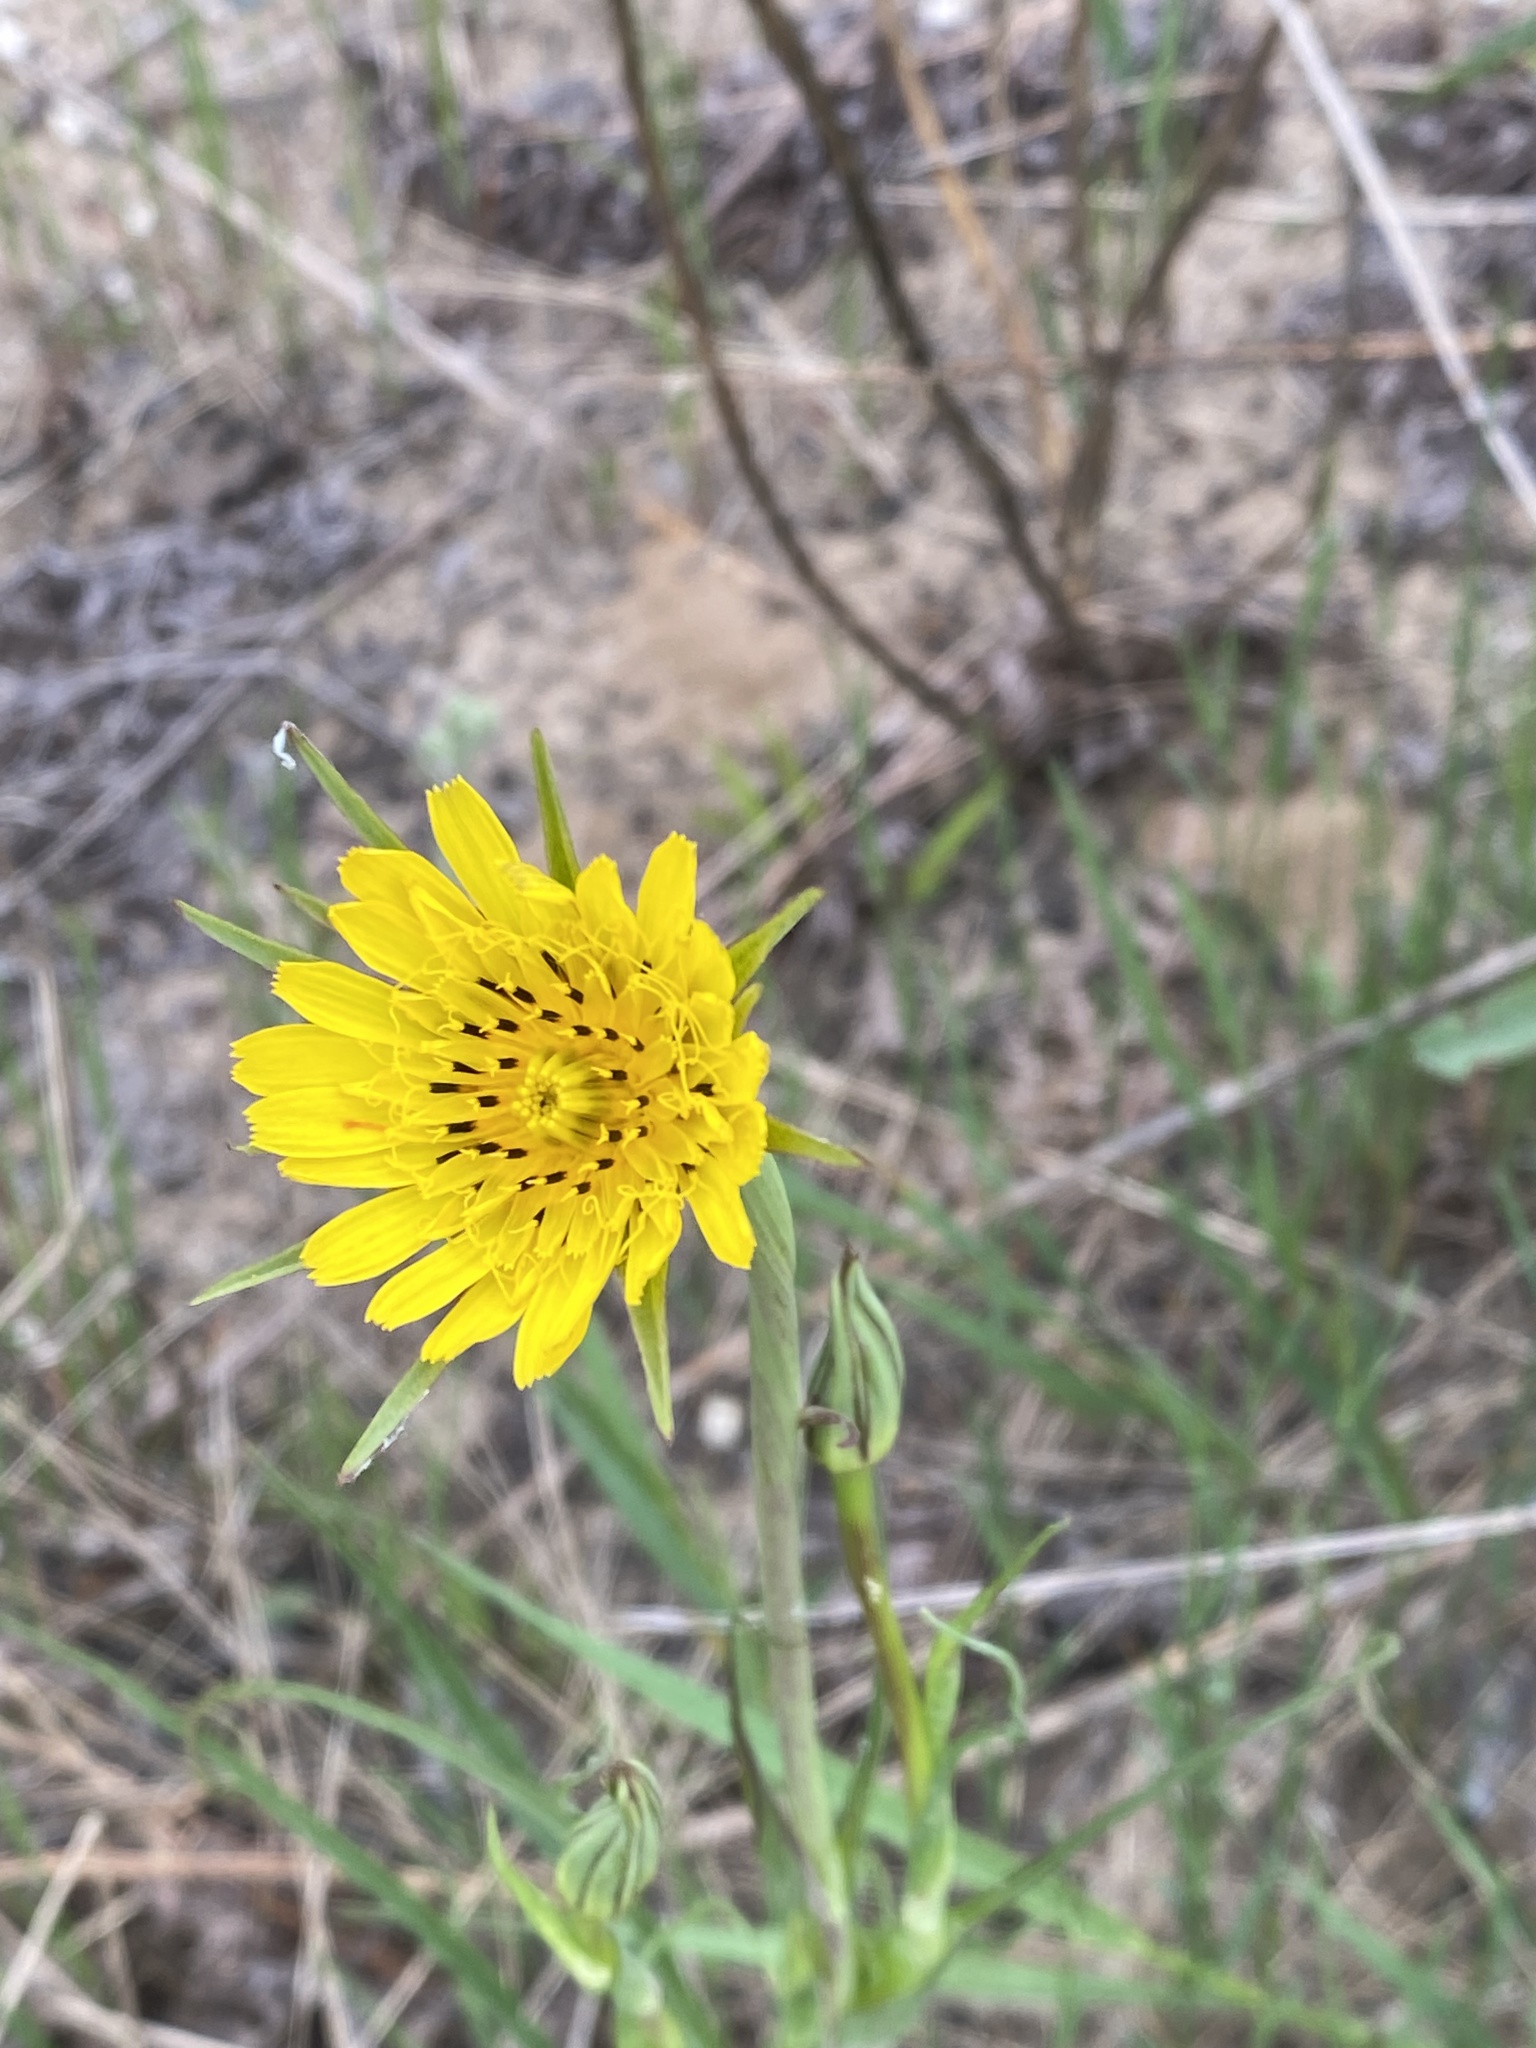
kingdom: Plantae
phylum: Tracheophyta
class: Magnoliopsida
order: Asterales
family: Asteraceae
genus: Tragopogon
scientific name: Tragopogon pratensis
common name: Goat's-beard
